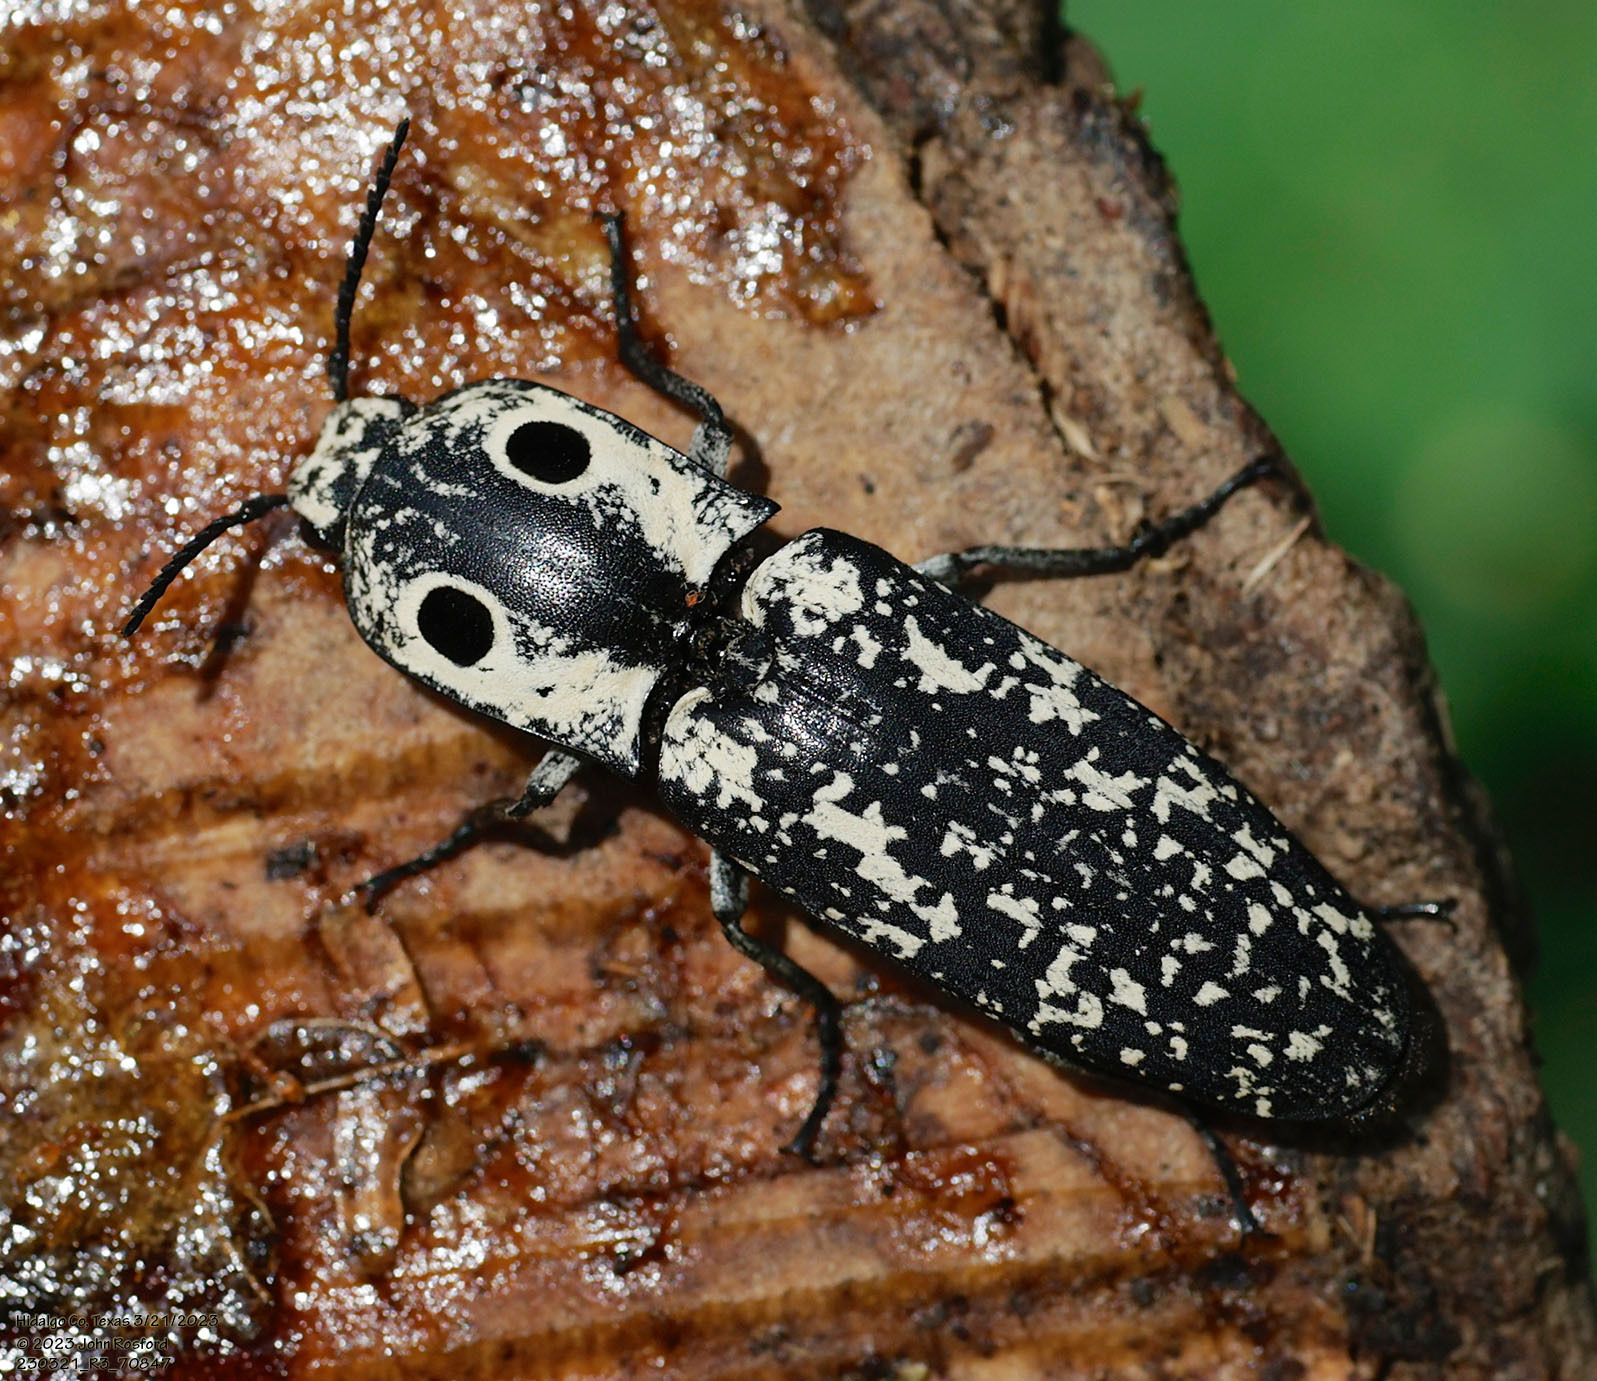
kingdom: Animalia
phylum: Arthropoda
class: Insecta
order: Coleoptera
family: Elateridae
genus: Alaus
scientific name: Alaus
